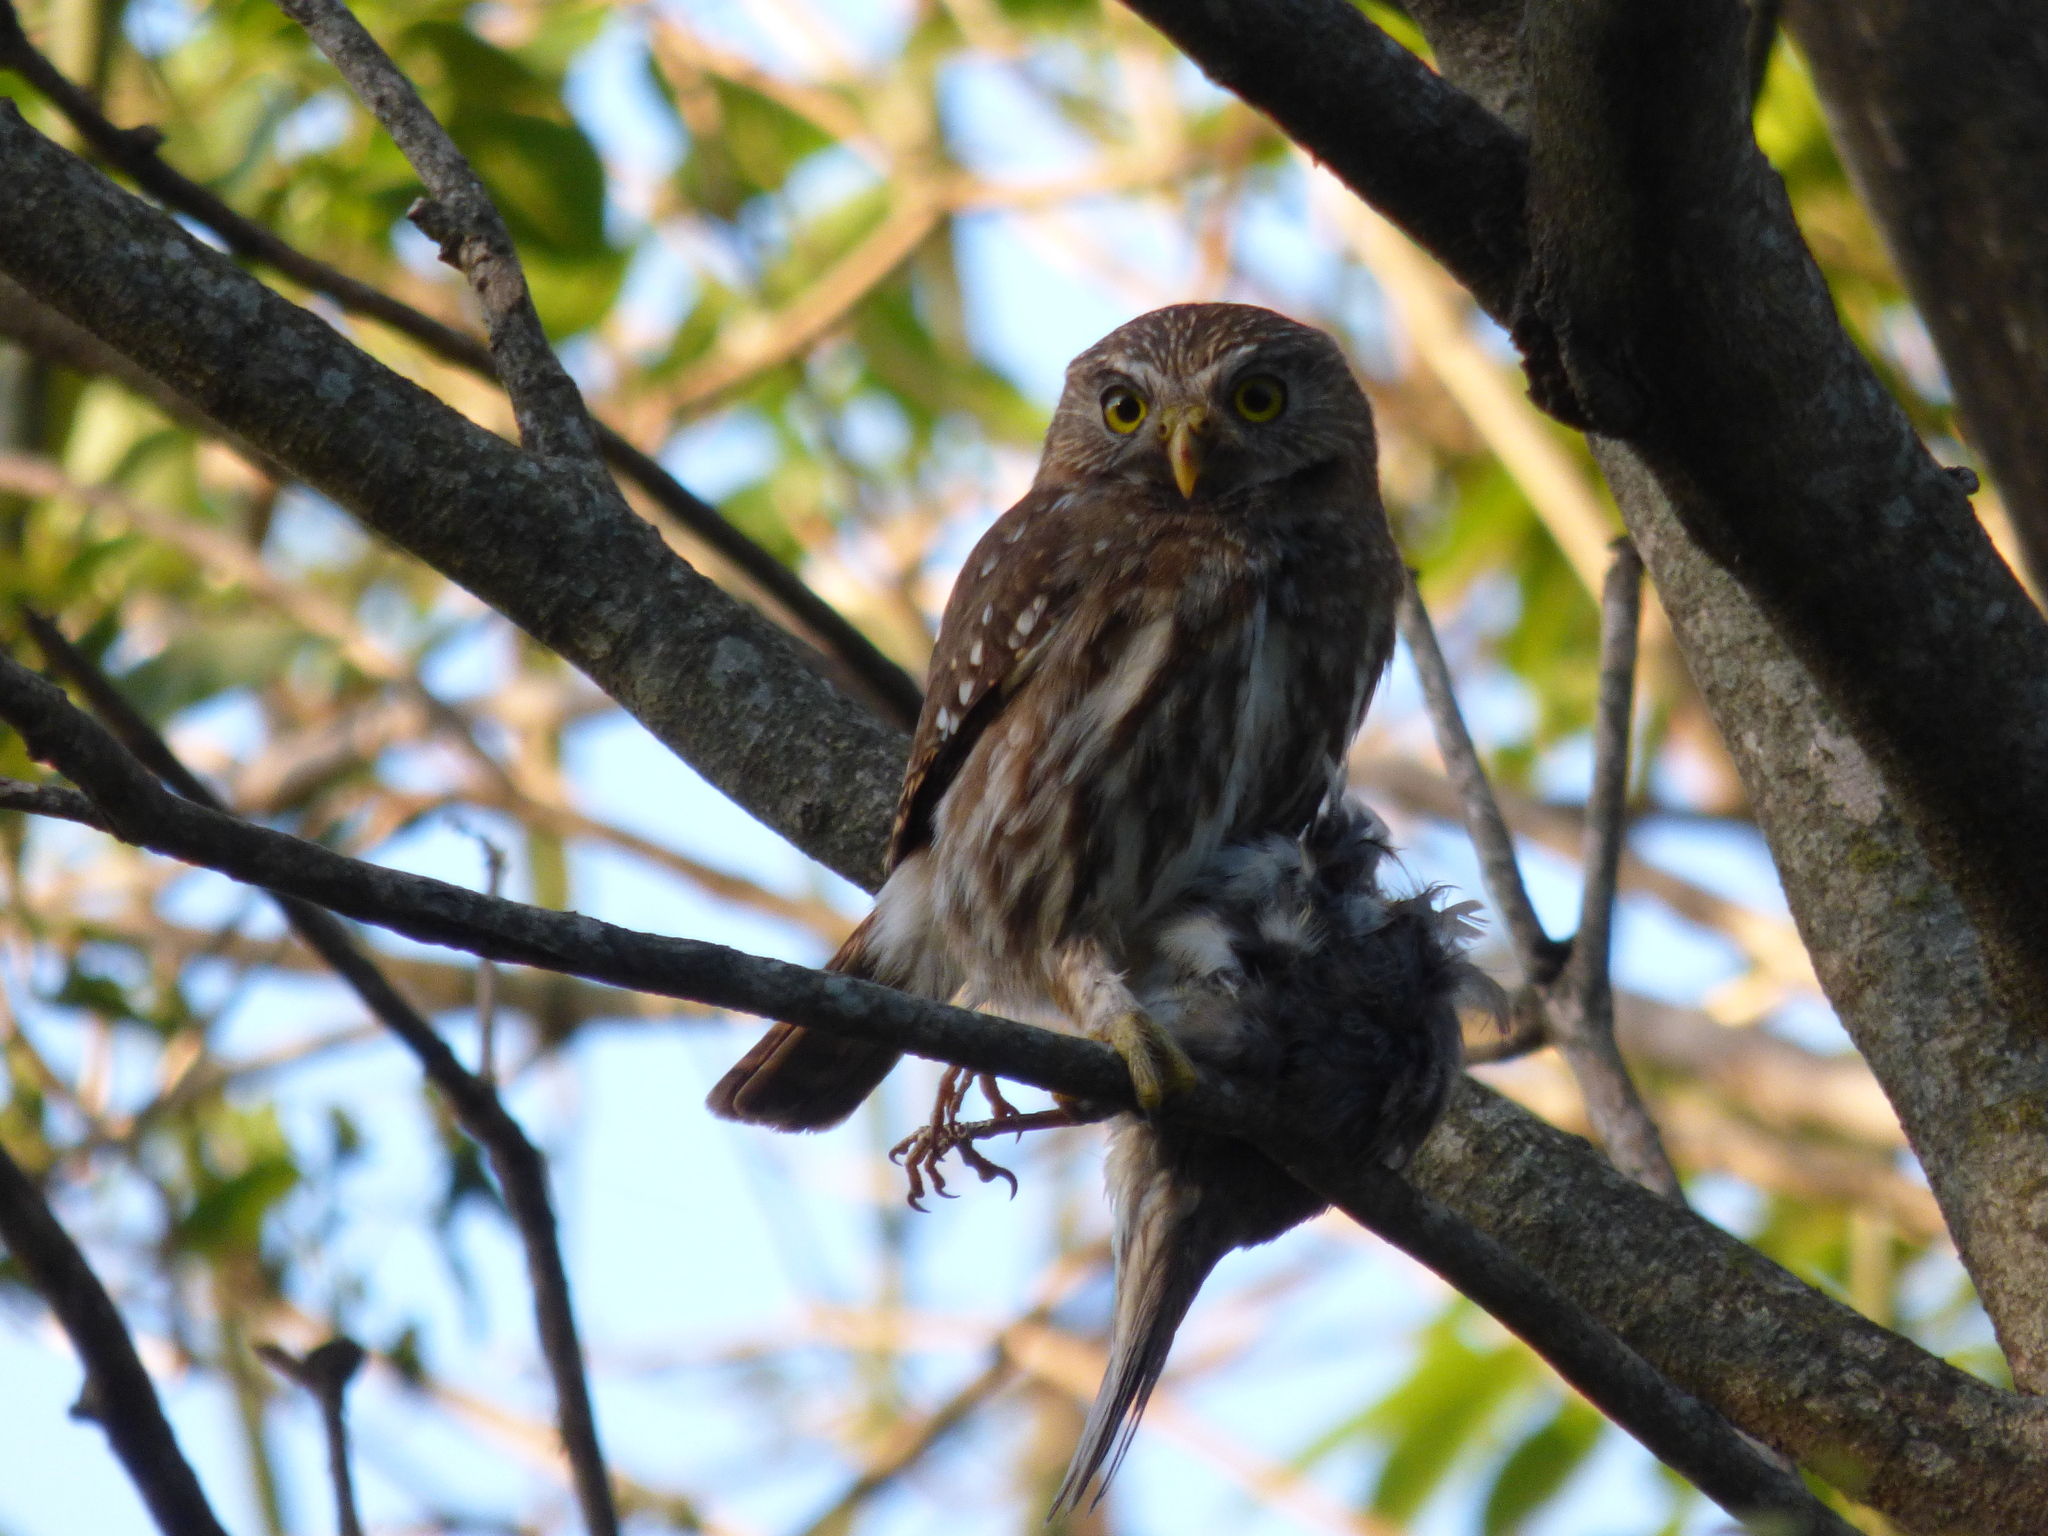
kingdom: Animalia
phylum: Chordata
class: Aves
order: Strigiformes
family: Strigidae
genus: Glaucidium
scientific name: Glaucidium brasilianum
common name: Ferruginous pygmy-owl
